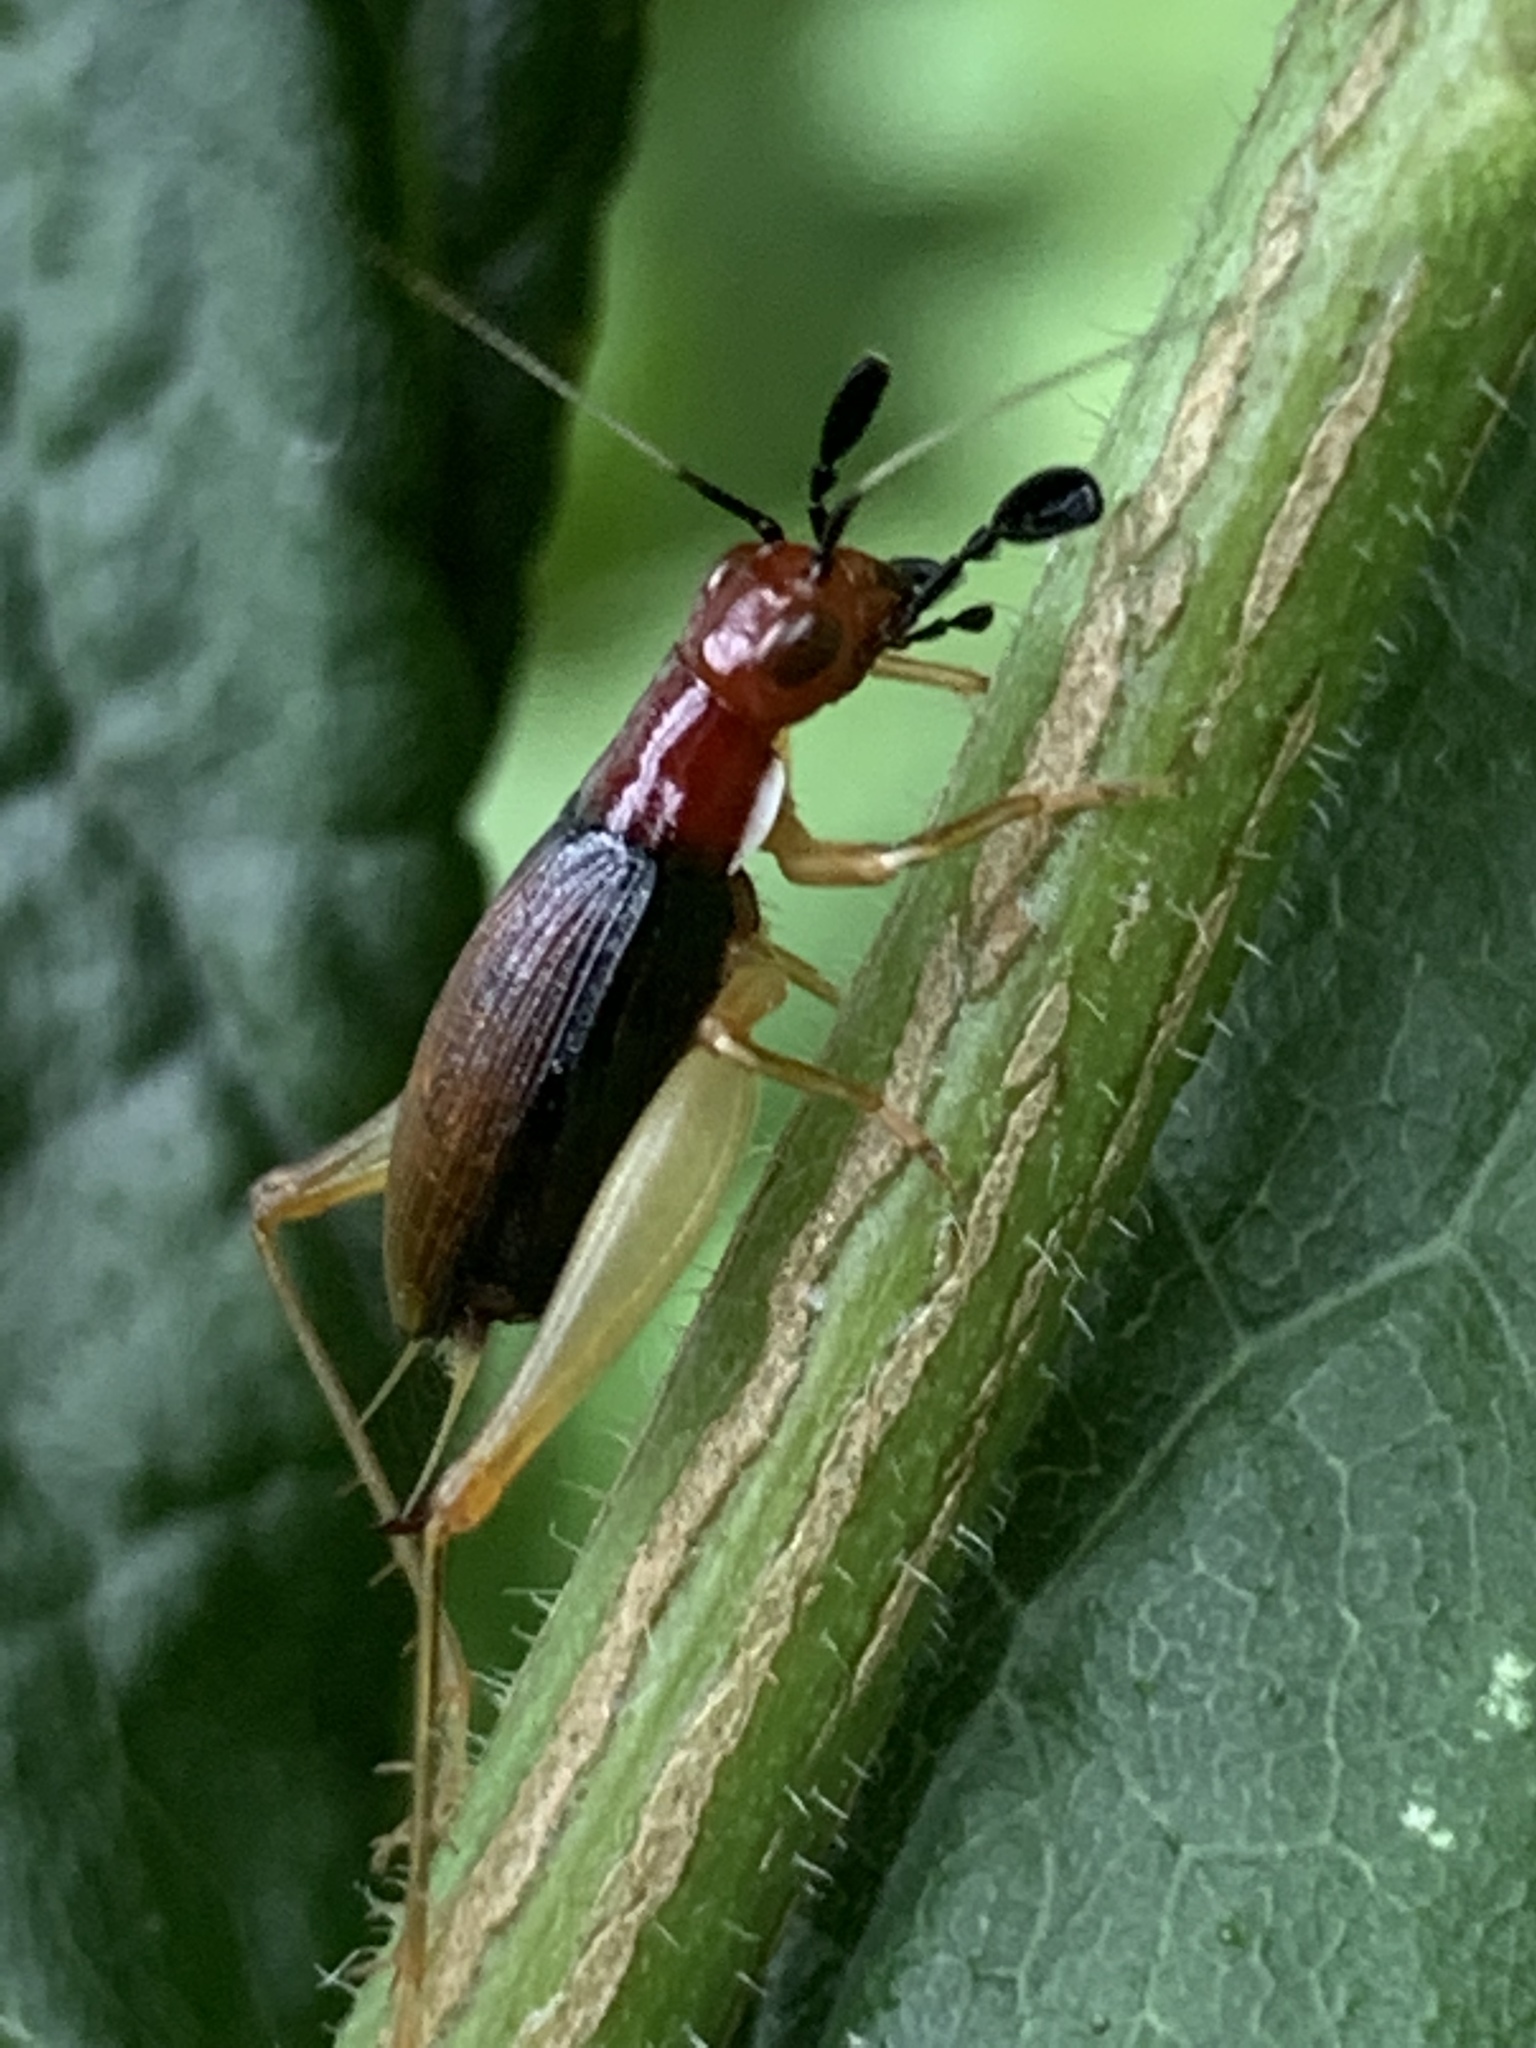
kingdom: Animalia
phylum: Arthropoda
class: Insecta
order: Orthoptera
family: Trigonidiidae
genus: Phyllopalpus
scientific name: Phyllopalpus pulchellus
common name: Handsome trig
